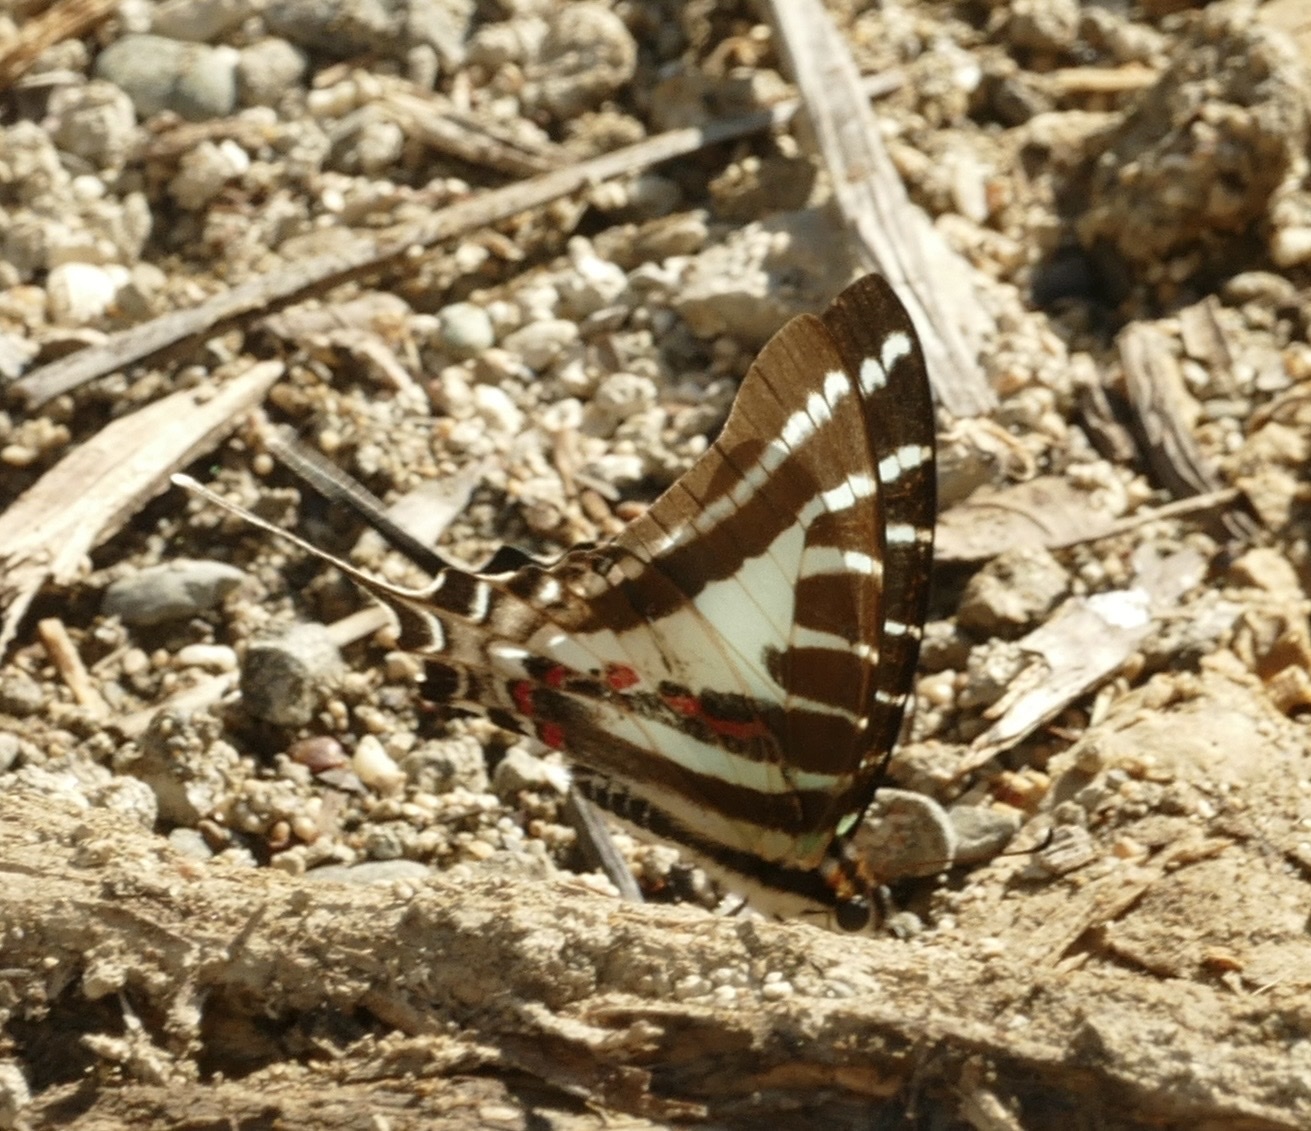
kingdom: Animalia
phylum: Arthropoda
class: Insecta
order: Lepidoptera
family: Papilionidae
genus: Graphium
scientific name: Graphium aristeus
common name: Chain swordtail
